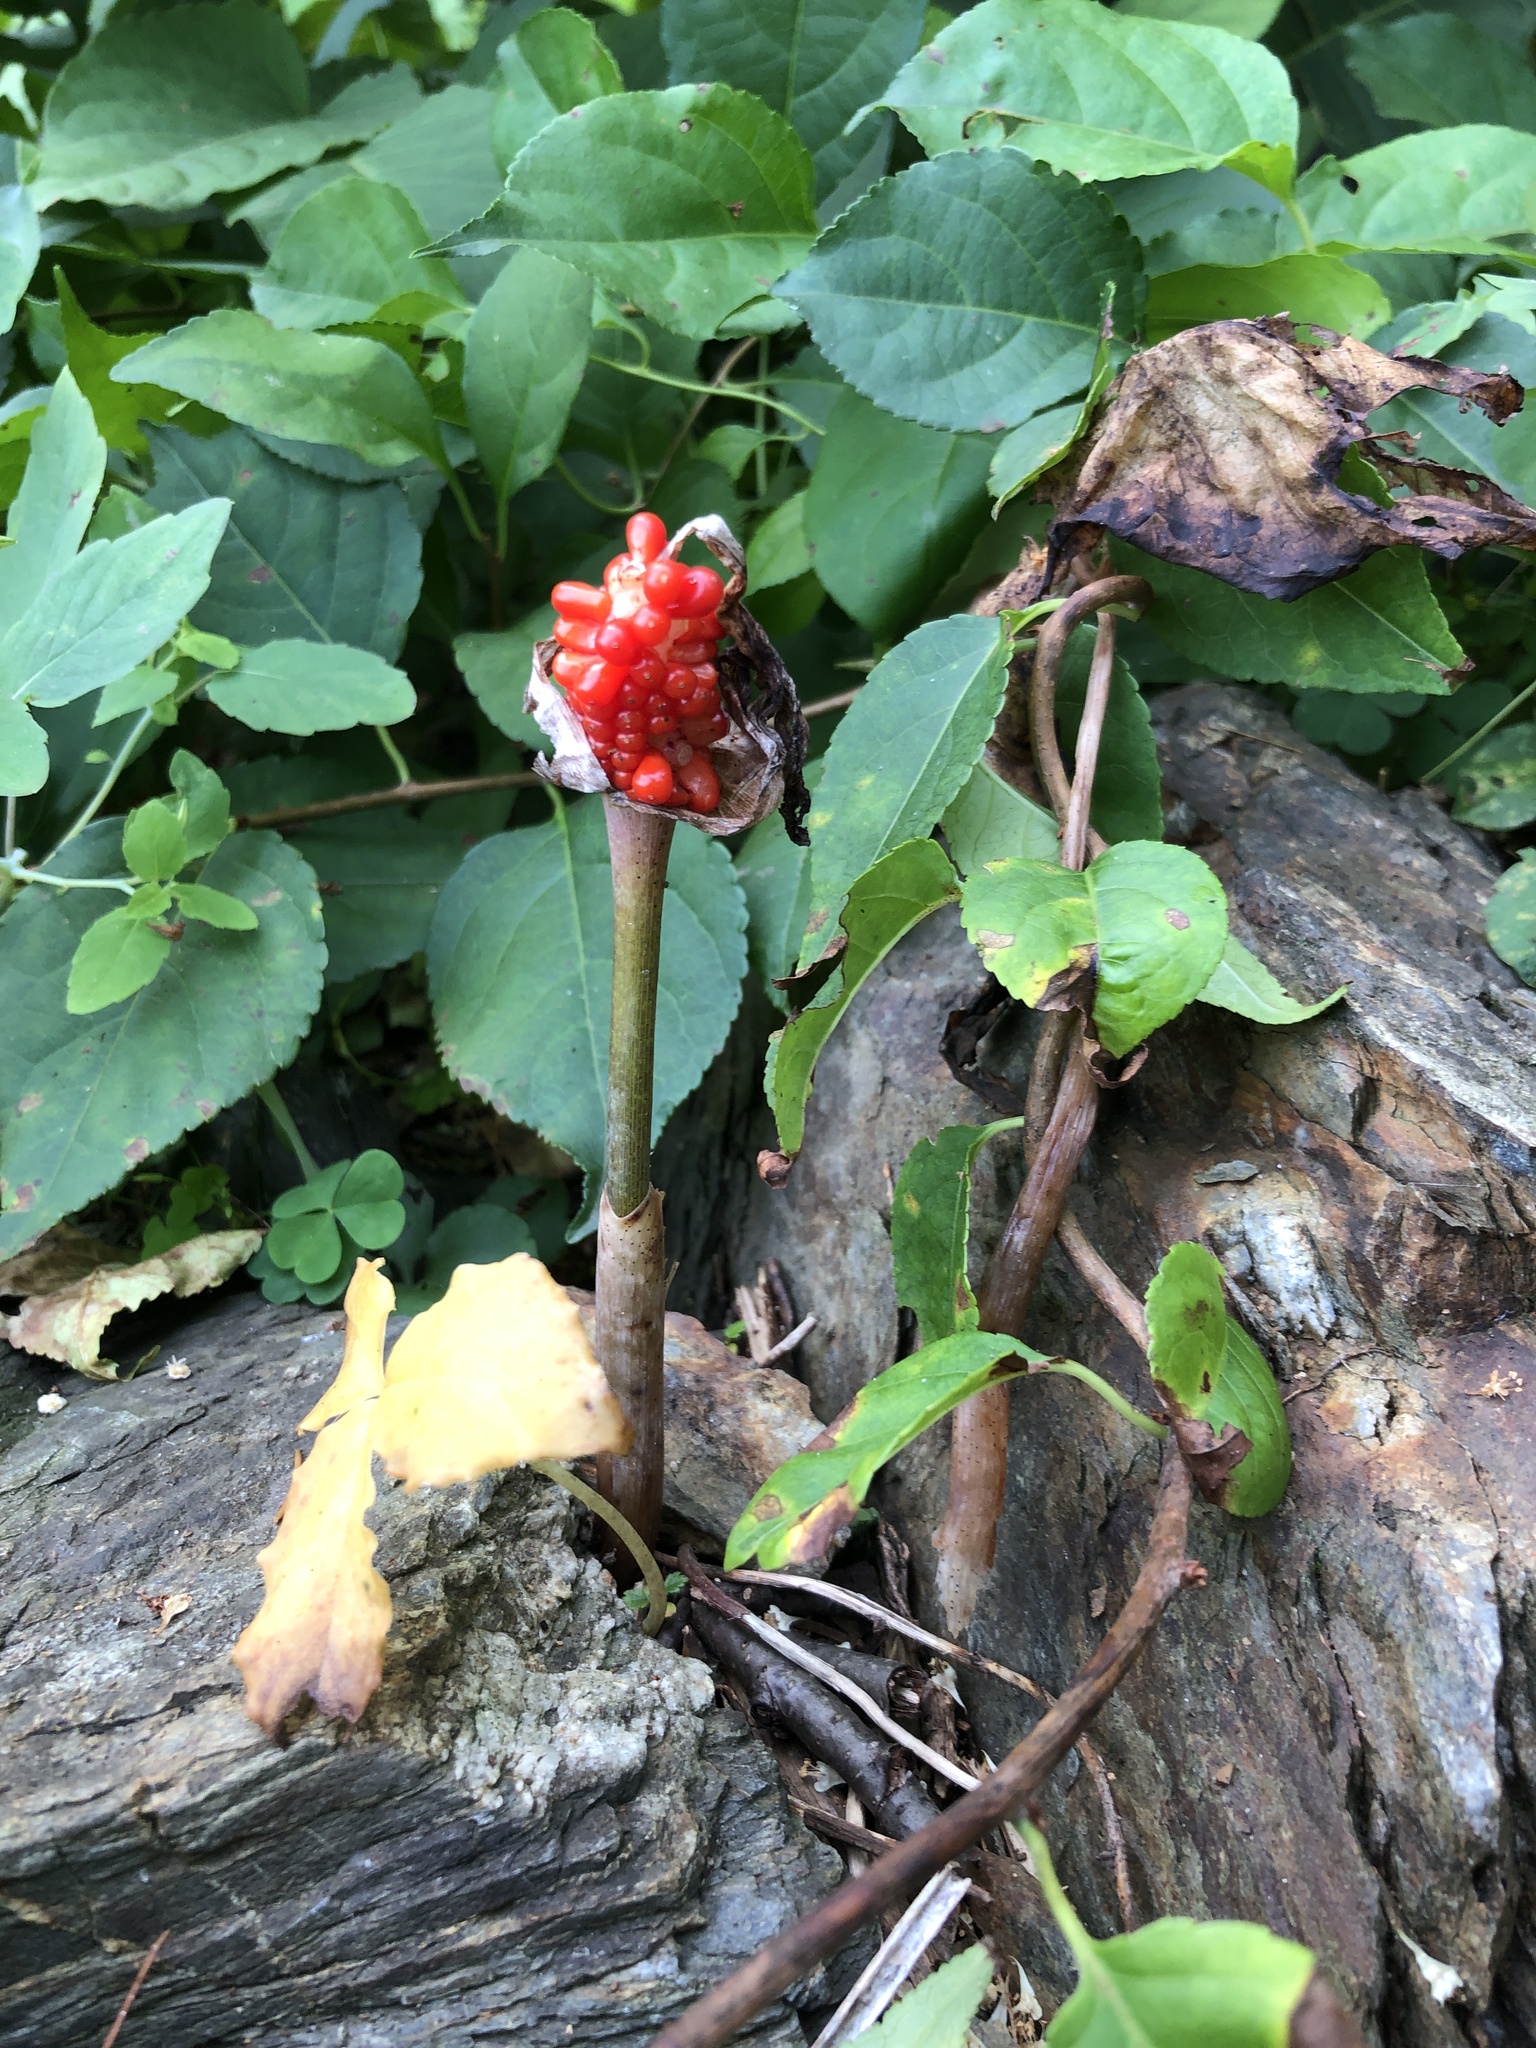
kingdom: Plantae
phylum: Tracheophyta
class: Liliopsida
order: Alismatales
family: Araceae
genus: Arisaema
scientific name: Arisaema triphyllum
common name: Jack-in-the-pulpit
